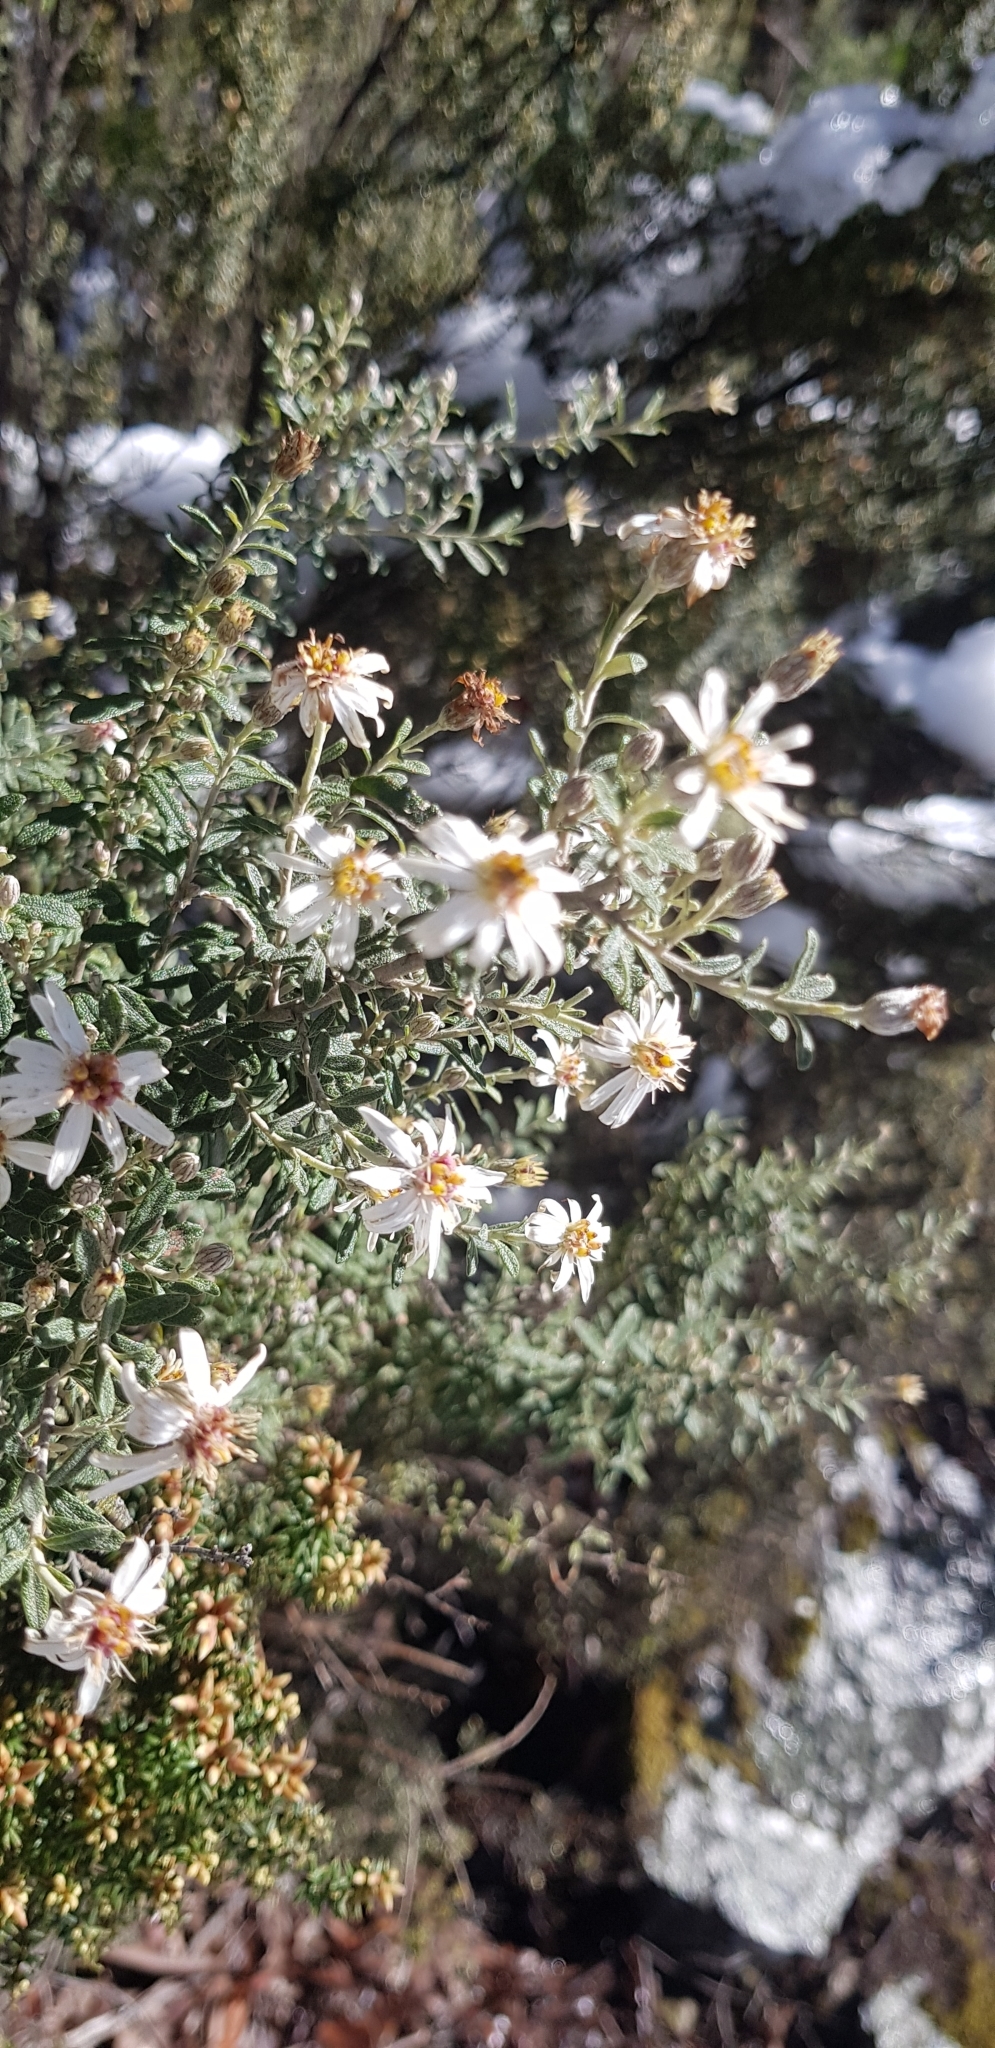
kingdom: Plantae
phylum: Tracheophyta
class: Magnoliopsida
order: Asterales
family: Asteraceae
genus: Olearia
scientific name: Olearia phlogopappa
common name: Alpine daisybush
